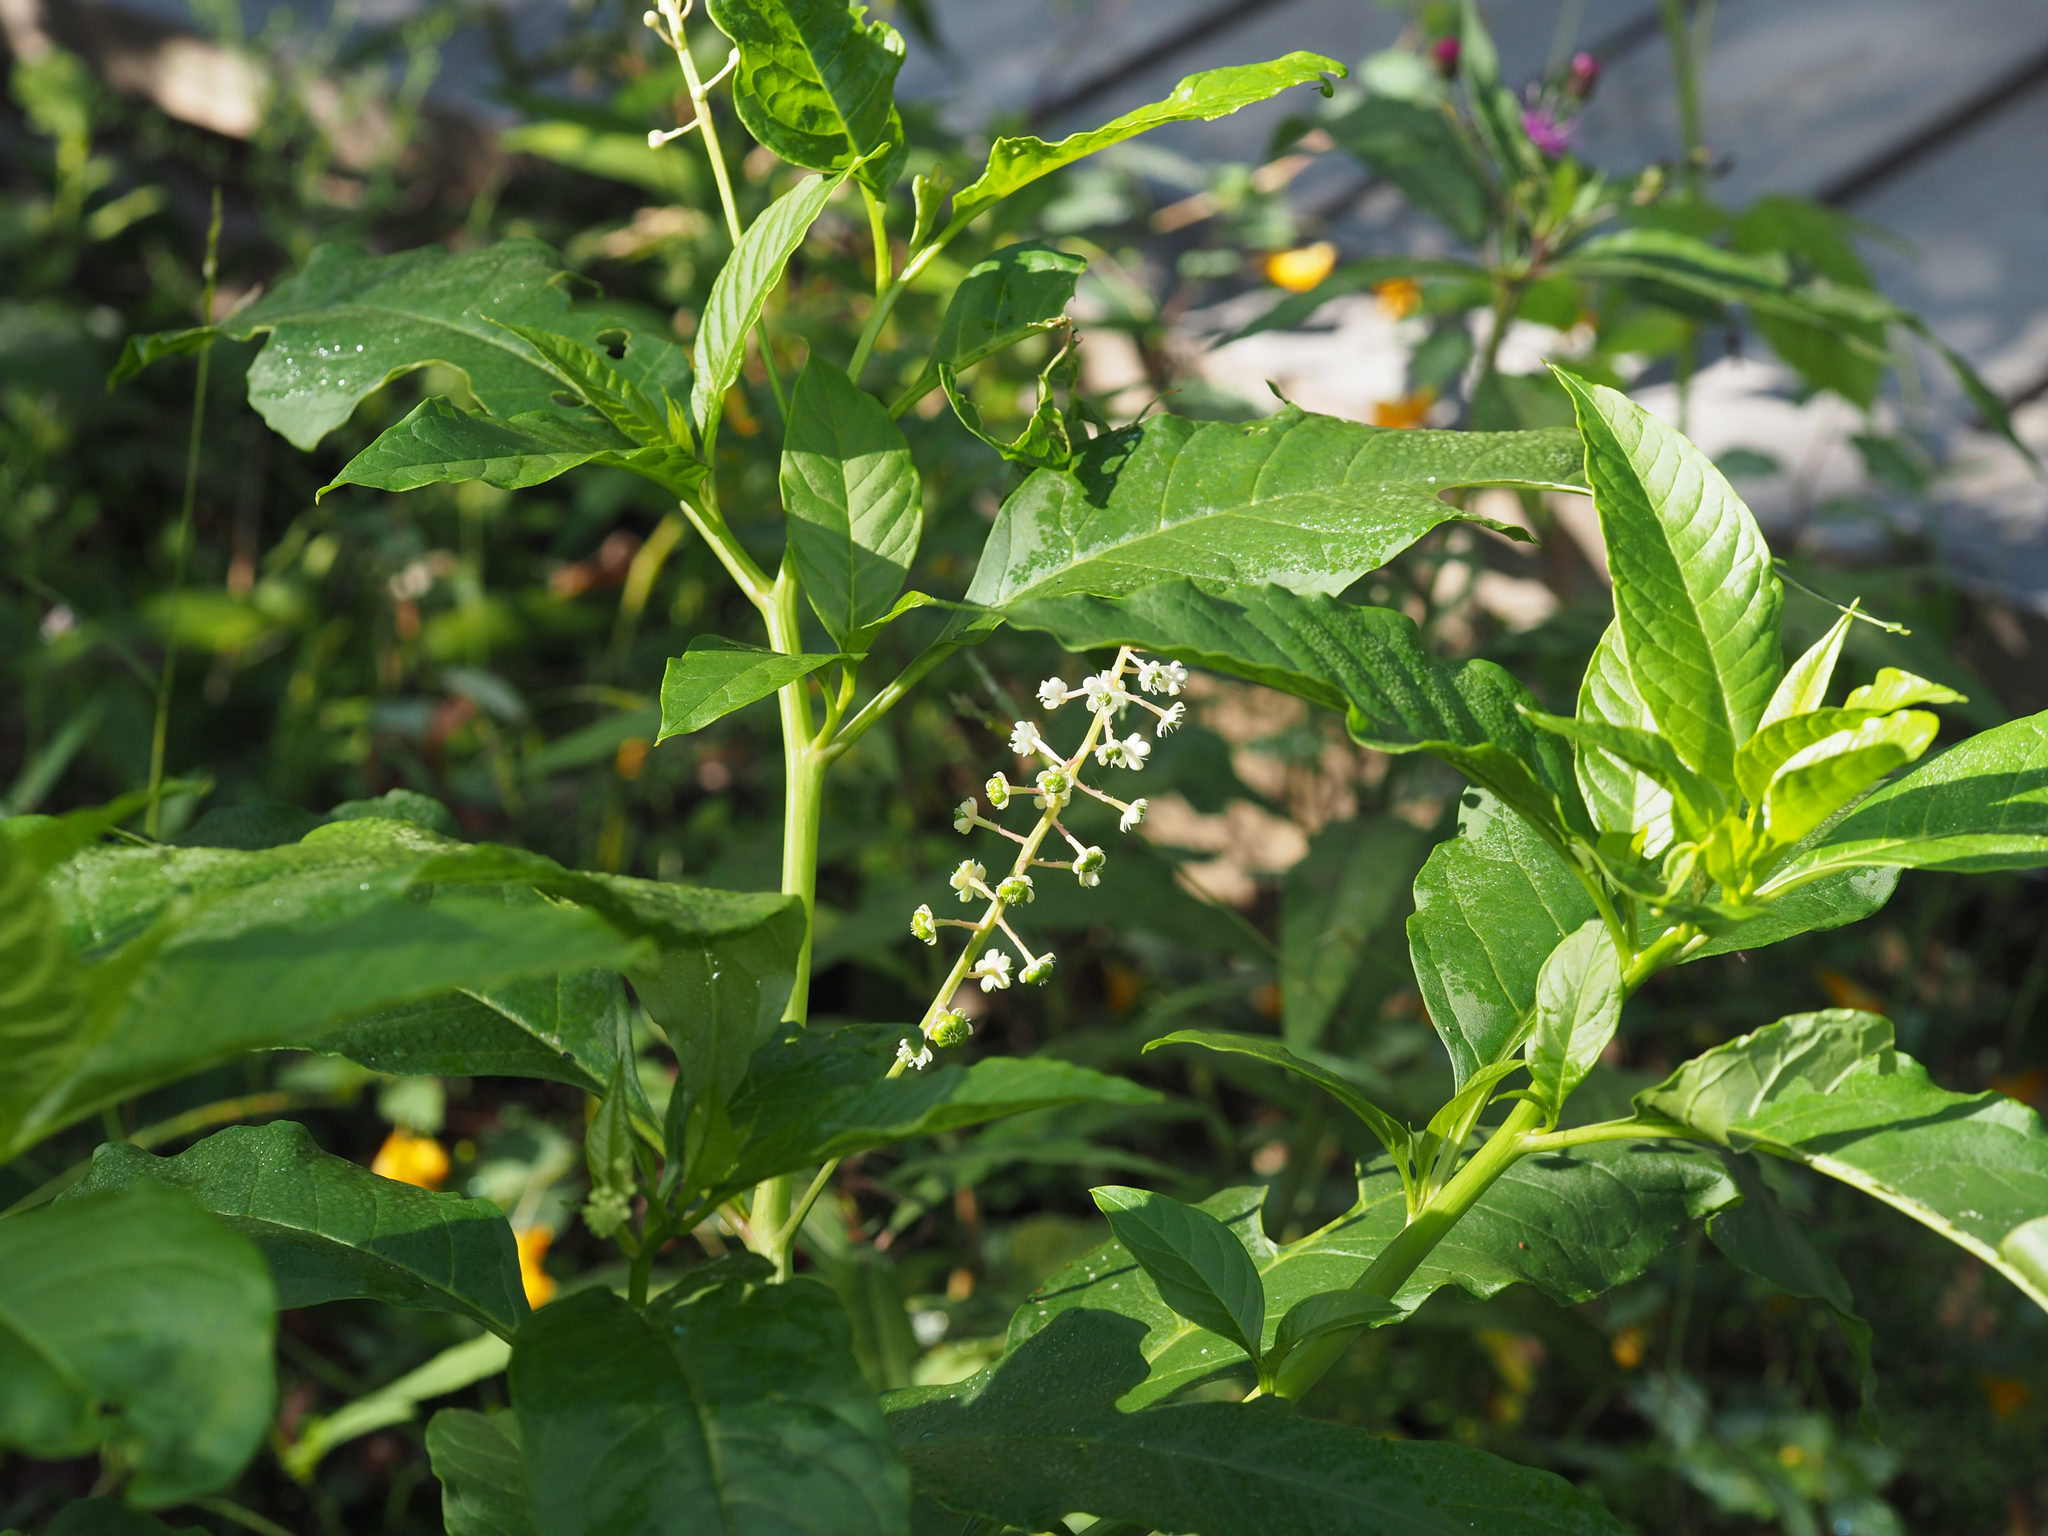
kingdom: Plantae
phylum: Tracheophyta
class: Magnoliopsida
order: Caryophyllales
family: Phytolaccaceae
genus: Phytolacca
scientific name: Phytolacca americana
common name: American pokeweed
